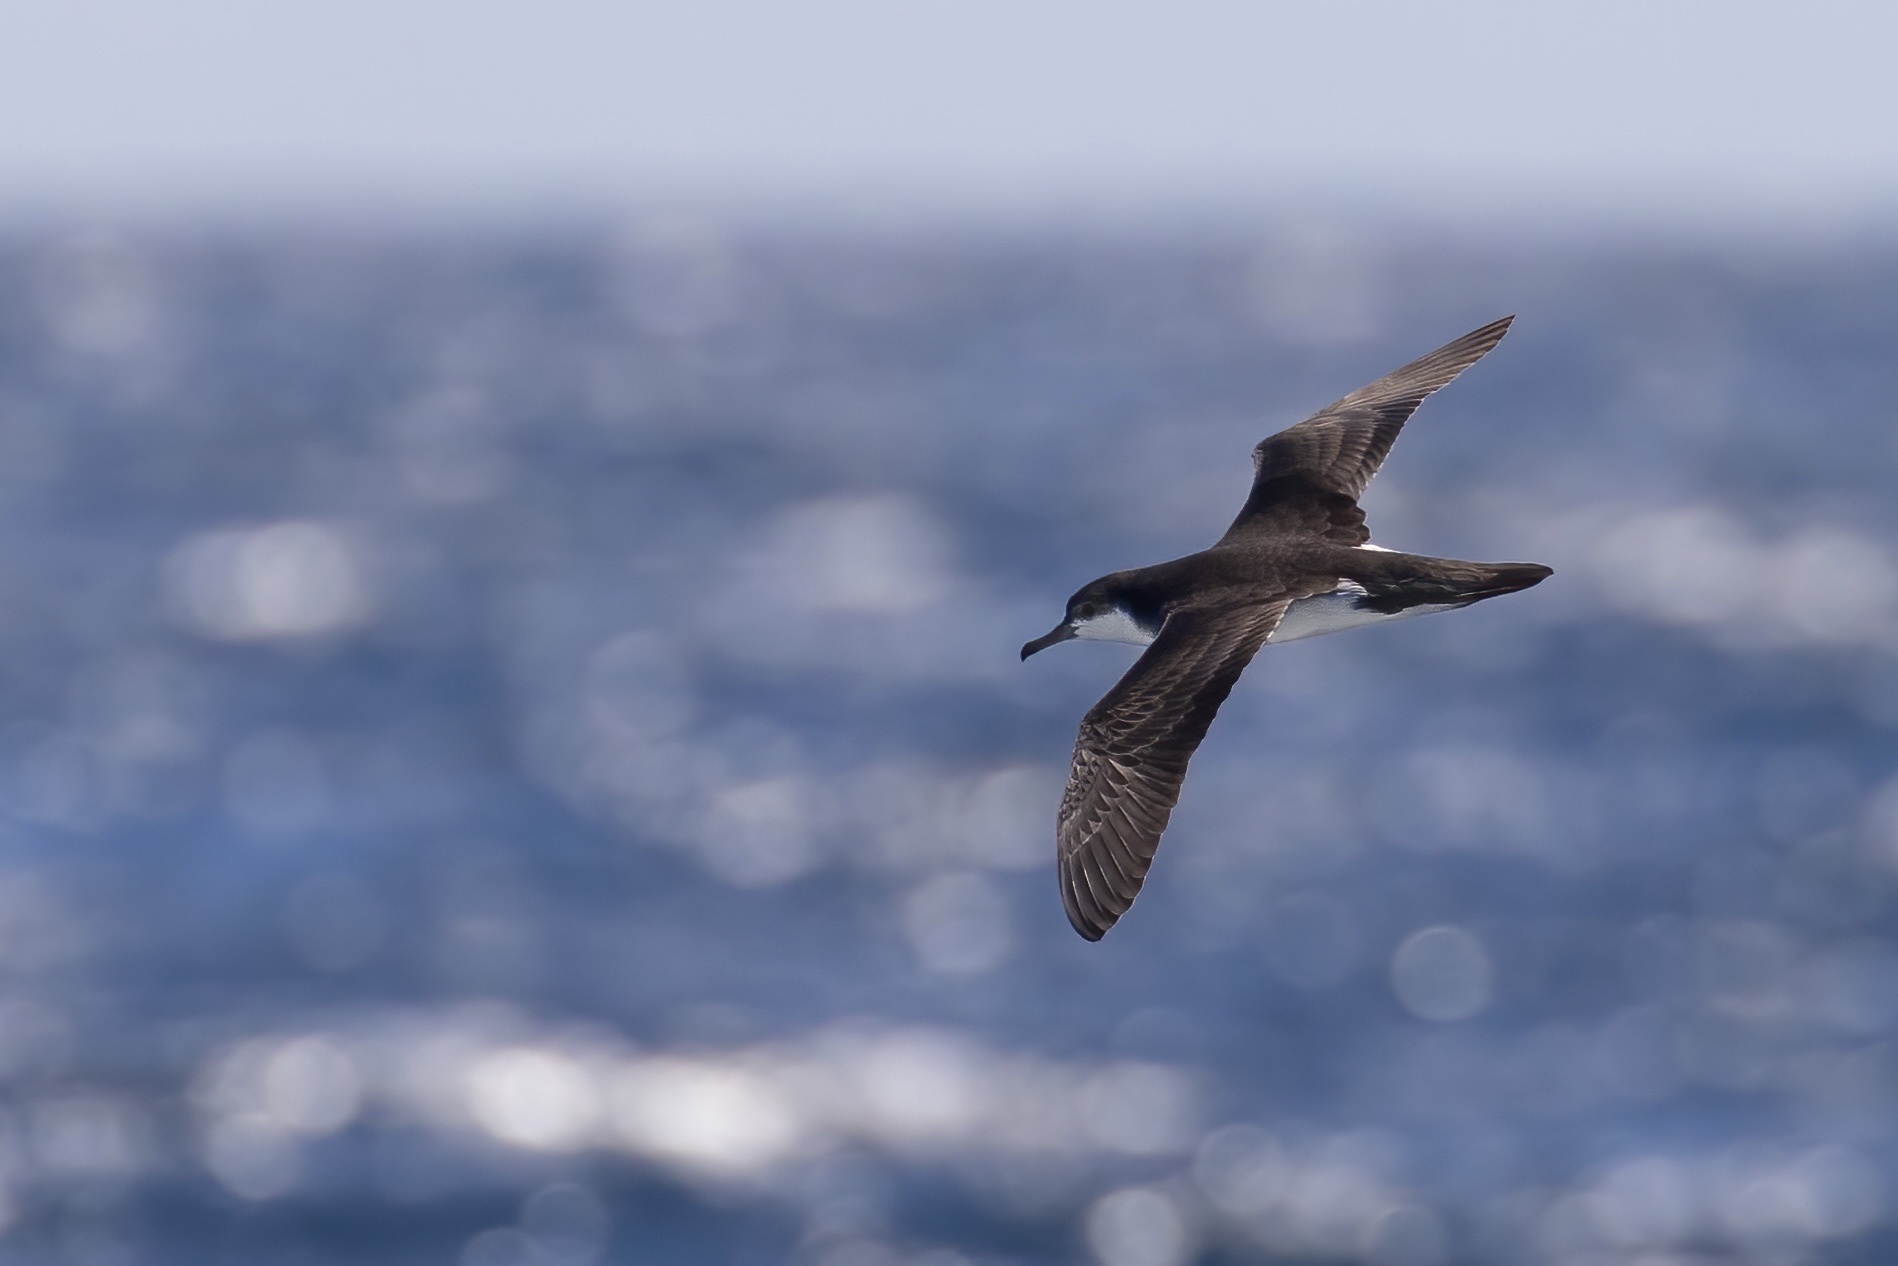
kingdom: Animalia
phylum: Chordata
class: Aves
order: Procellariiformes
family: Procellariidae
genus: Puffinus
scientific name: Puffinus lherminieri
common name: Audubon's shearwater
